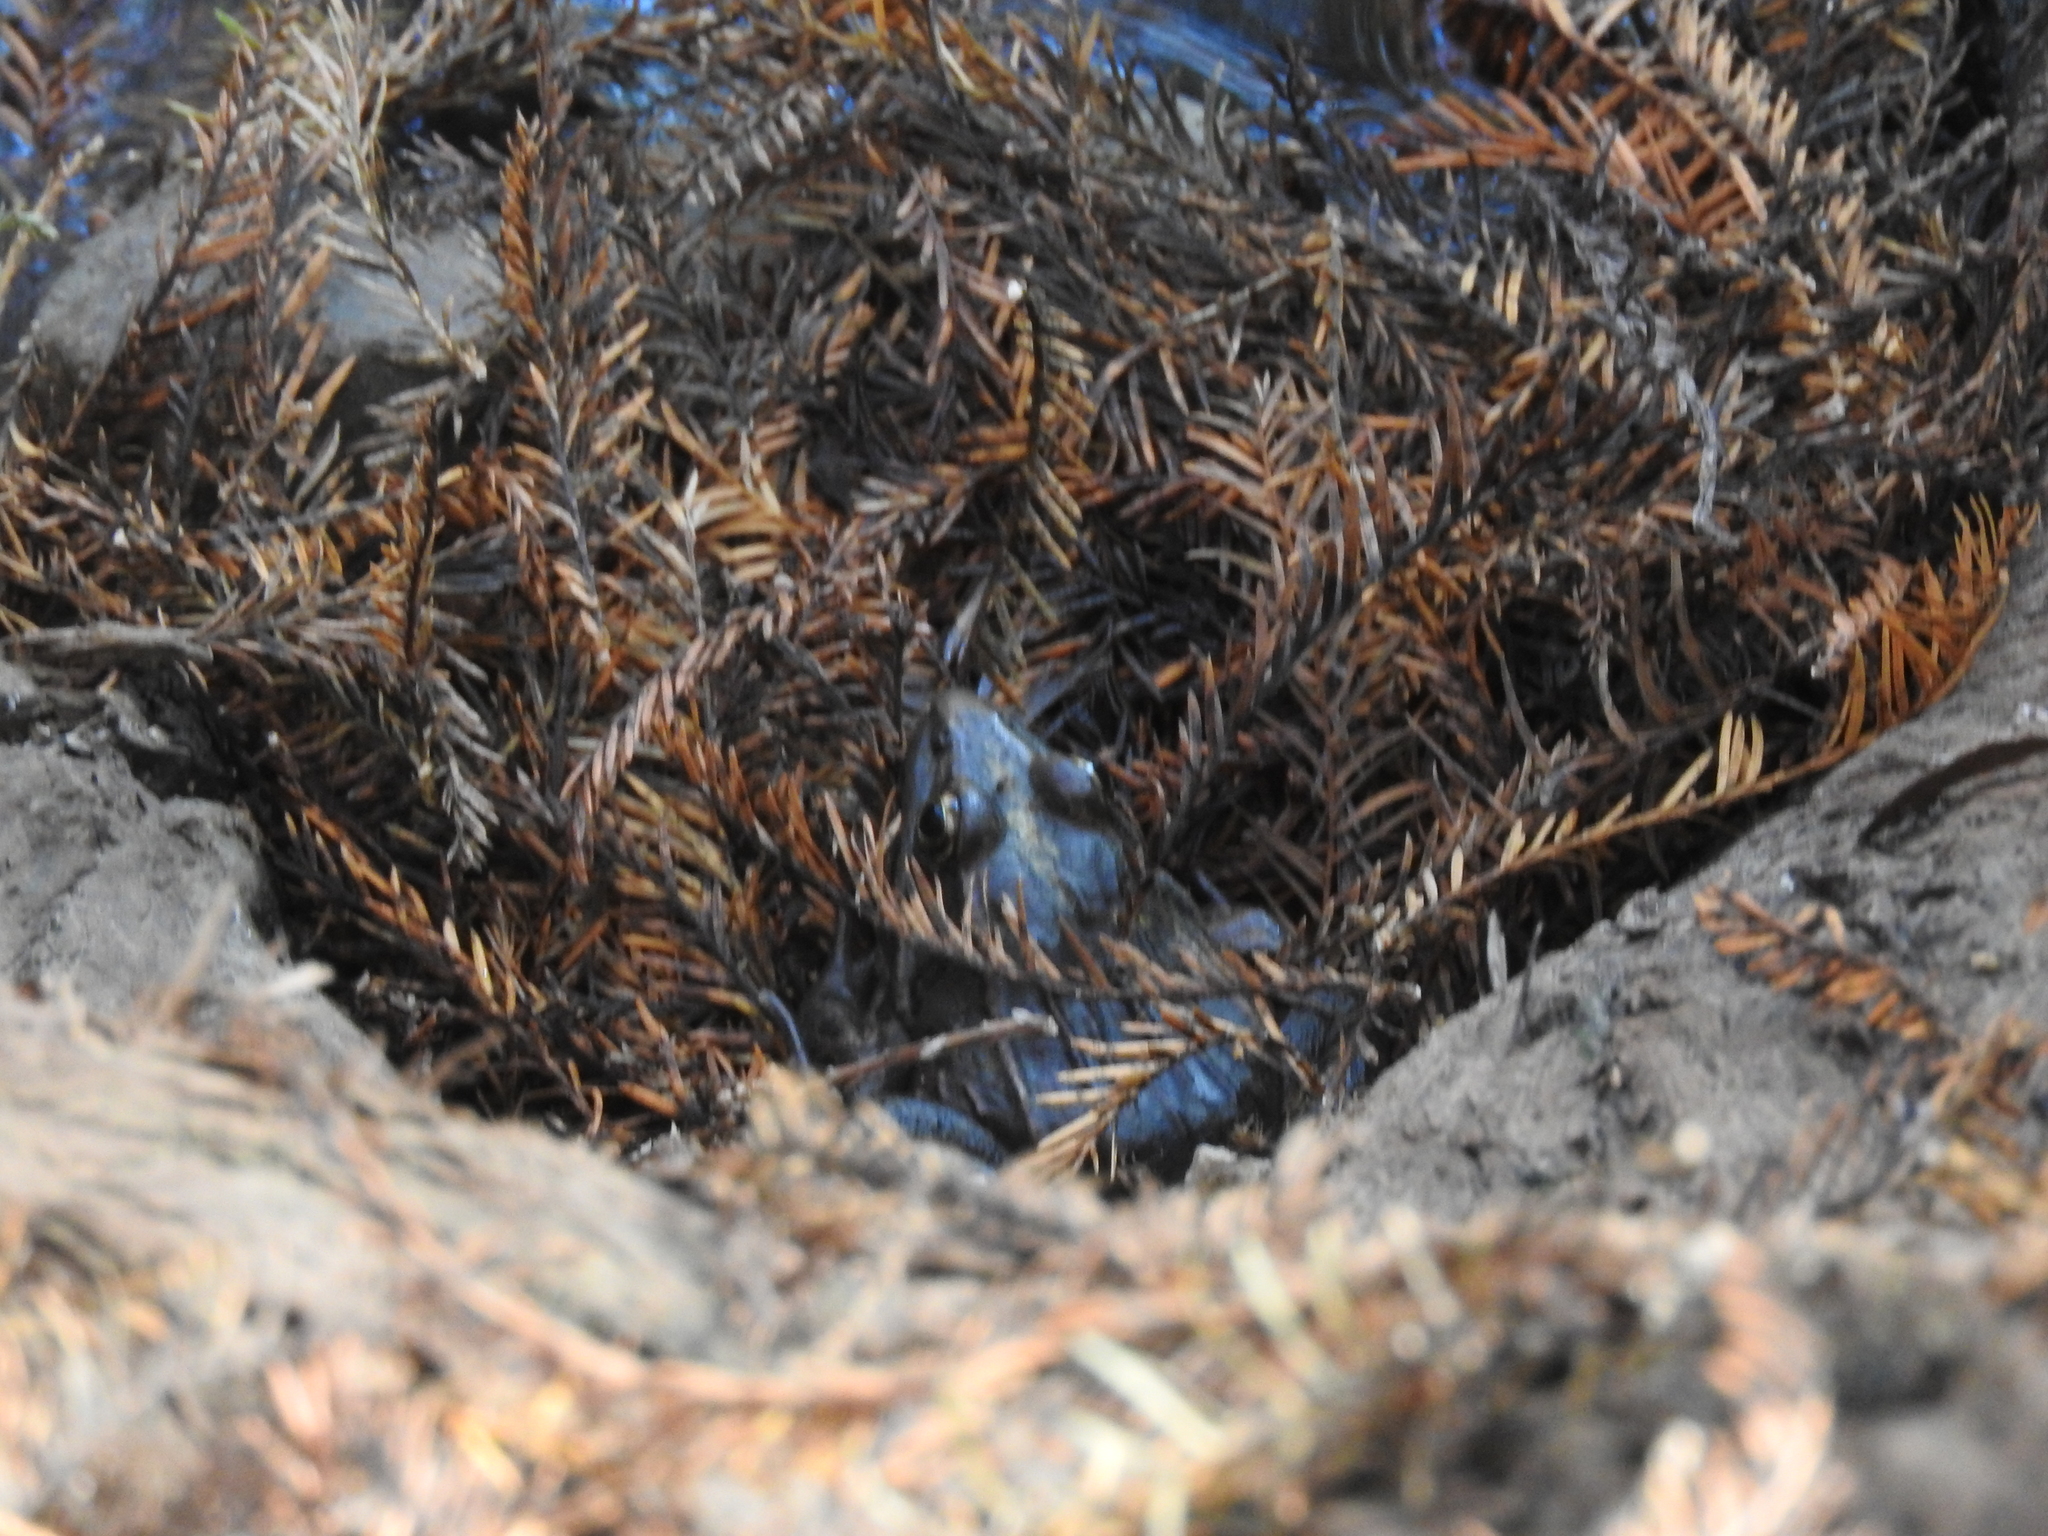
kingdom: Animalia
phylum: Chordata
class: Amphibia
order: Anura
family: Ranidae
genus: Lithobates
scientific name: Lithobates neovolcanicus
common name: Transverse volcanic leopard frog
